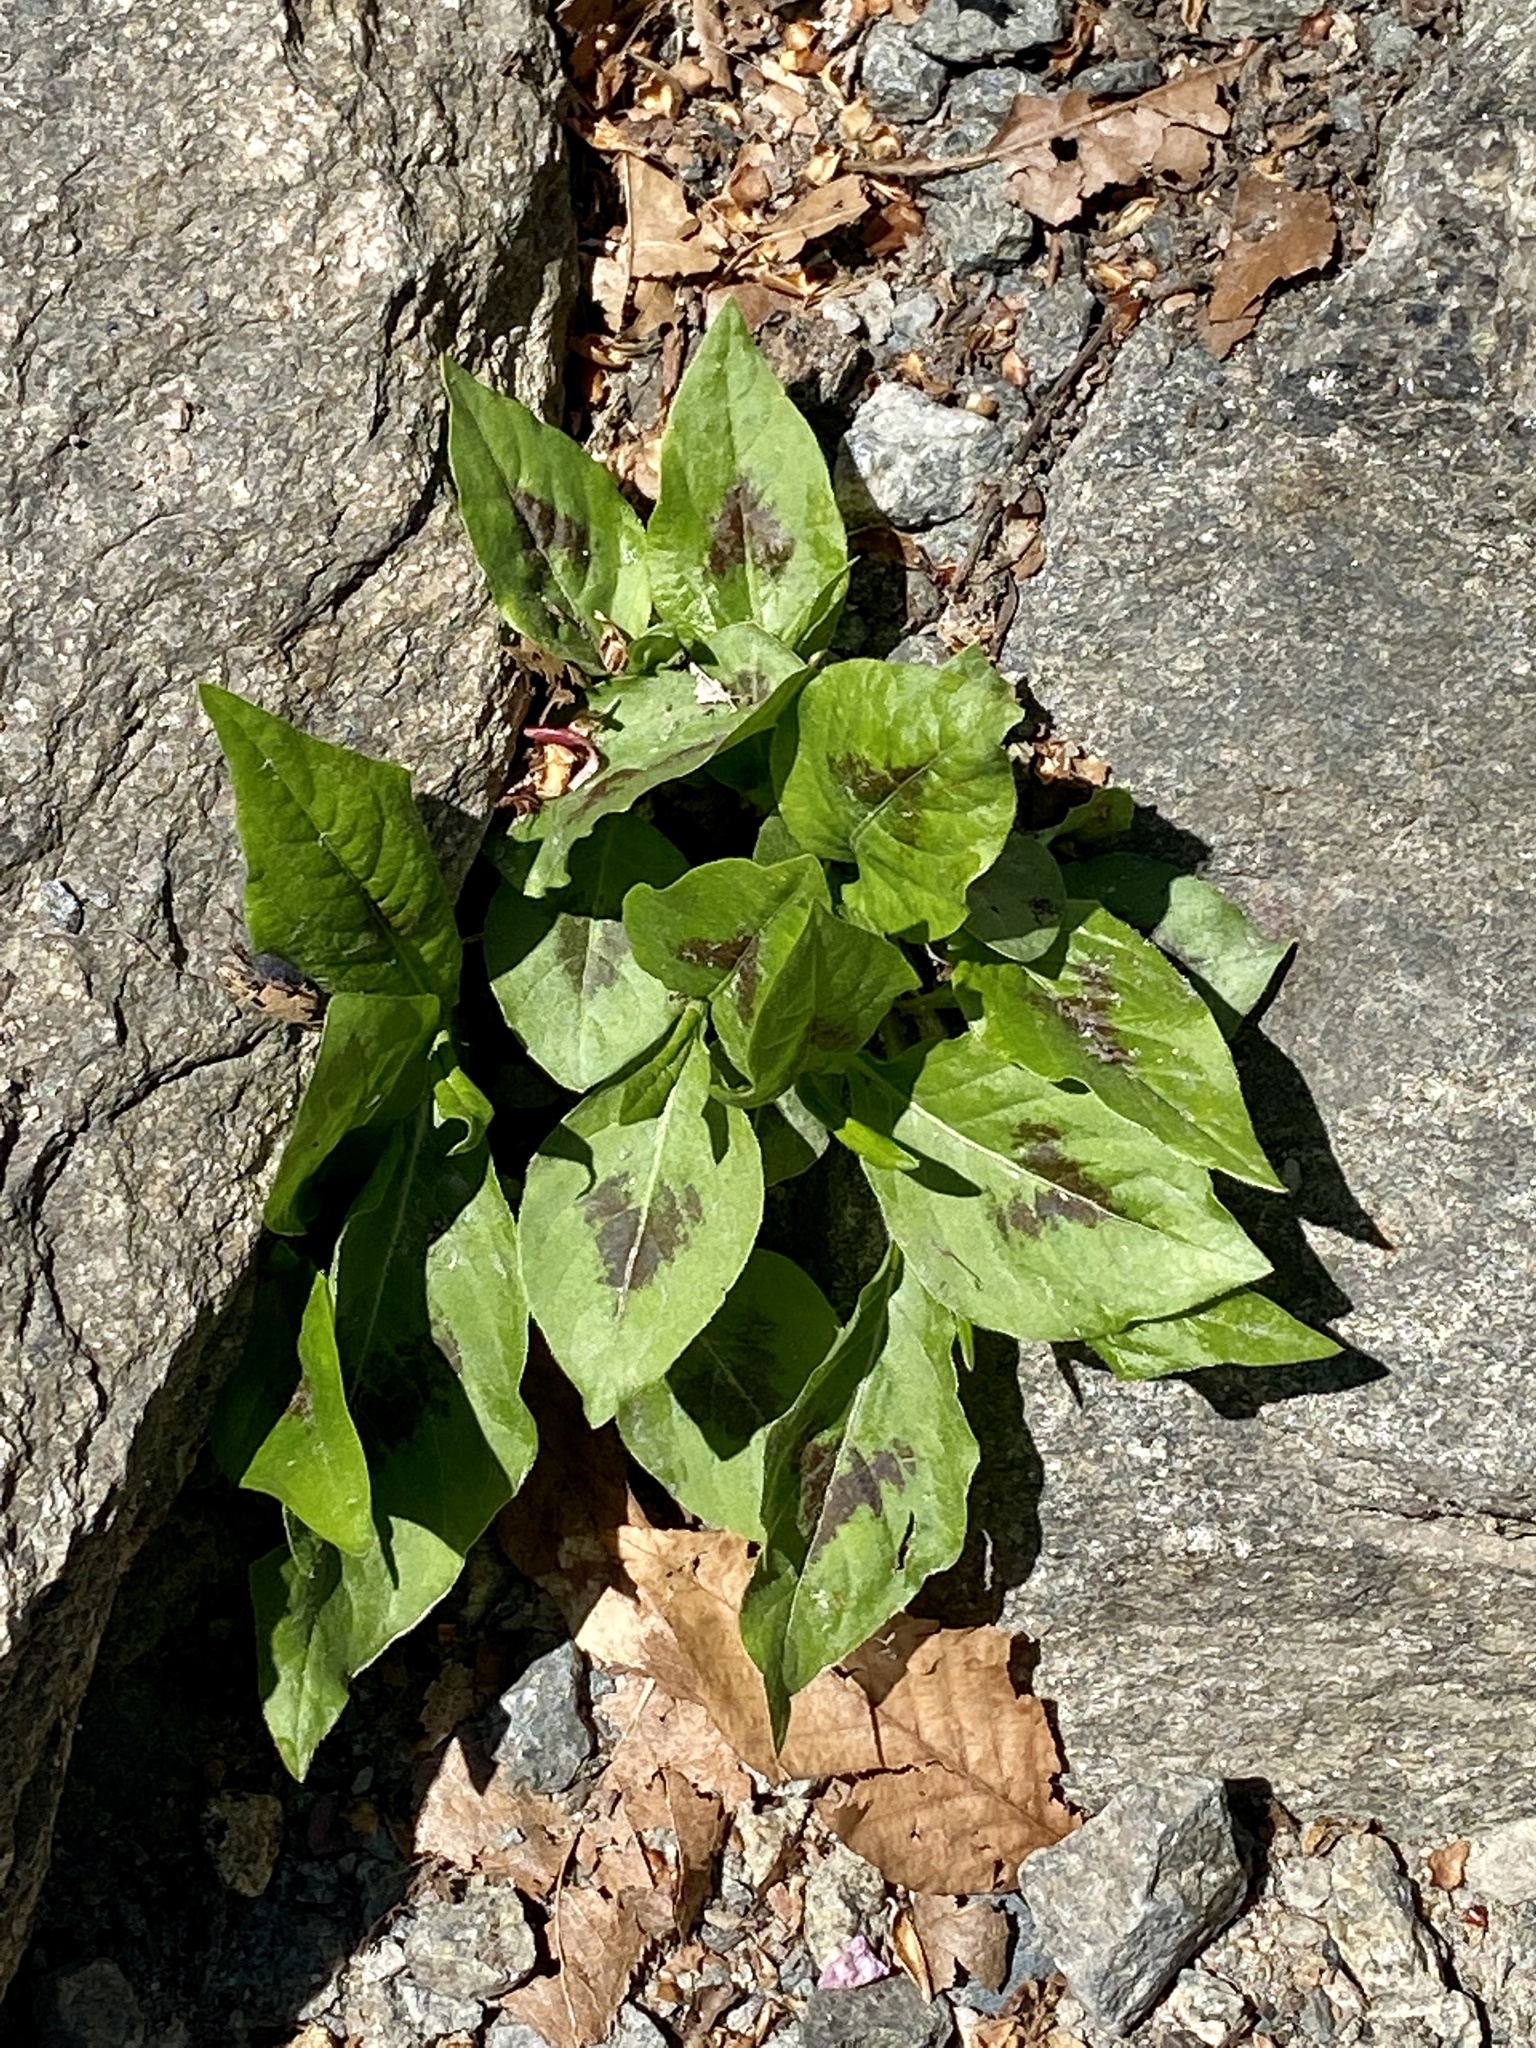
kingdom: Plantae
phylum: Tracheophyta
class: Magnoliopsida
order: Caryophyllales
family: Polygonaceae
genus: Persicaria
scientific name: Persicaria virginiana
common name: Jumpseed
